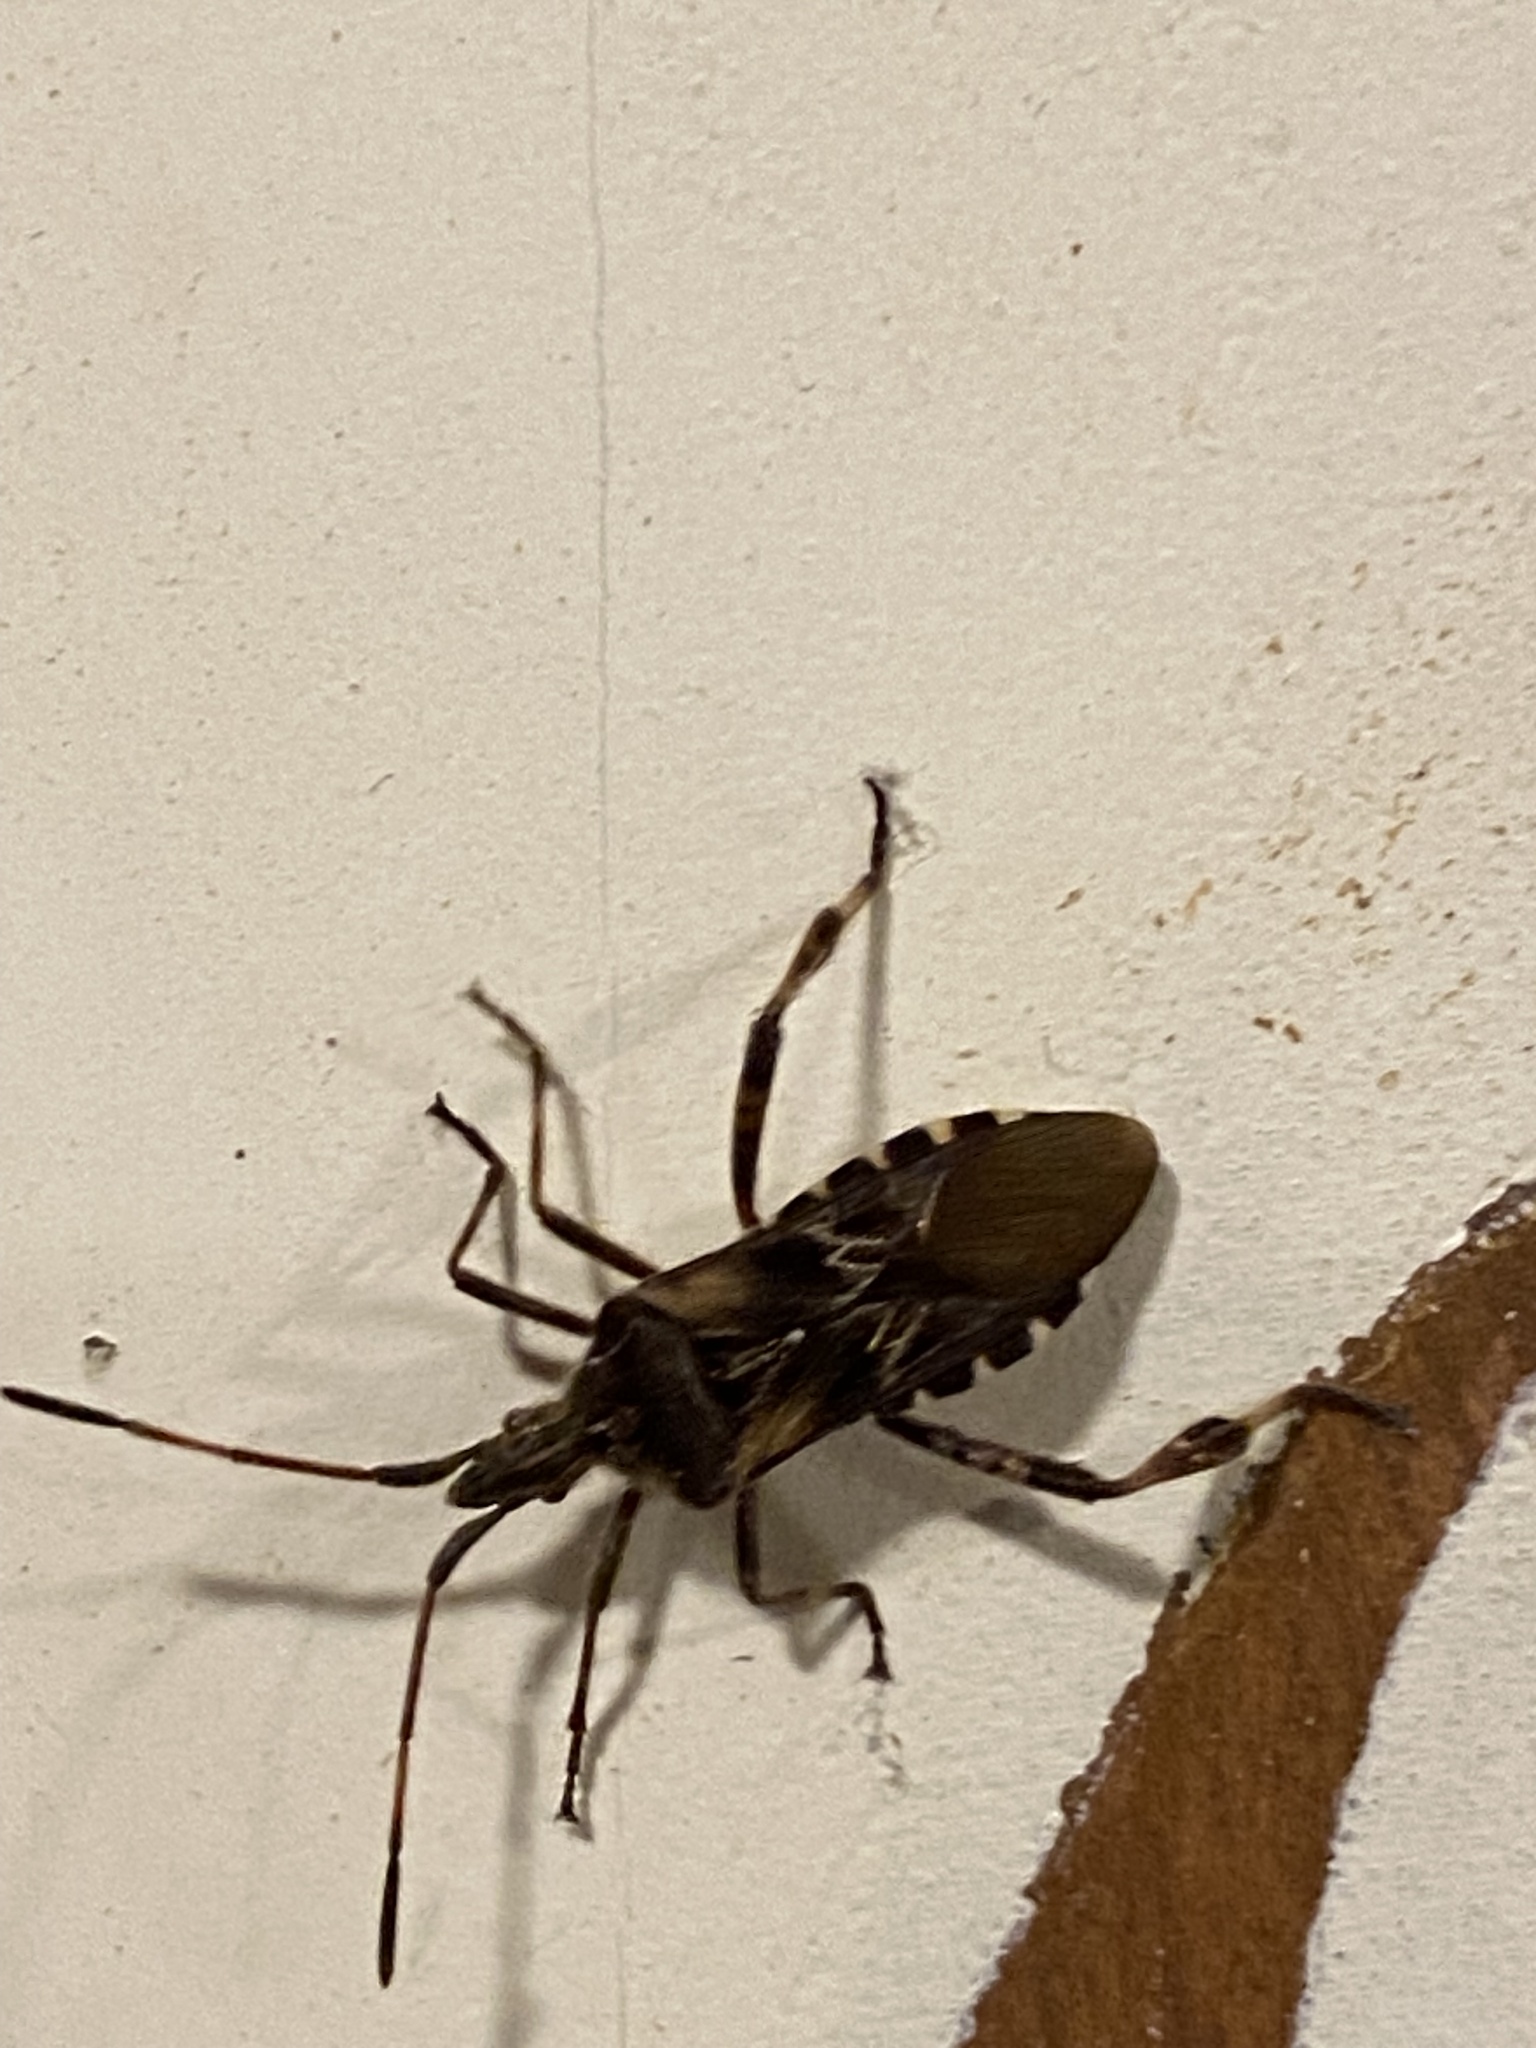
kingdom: Animalia
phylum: Arthropoda
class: Insecta
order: Hemiptera
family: Coreidae
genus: Leptoglossus
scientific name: Leptoglossus occidentalis
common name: Western conifer-seed bug
